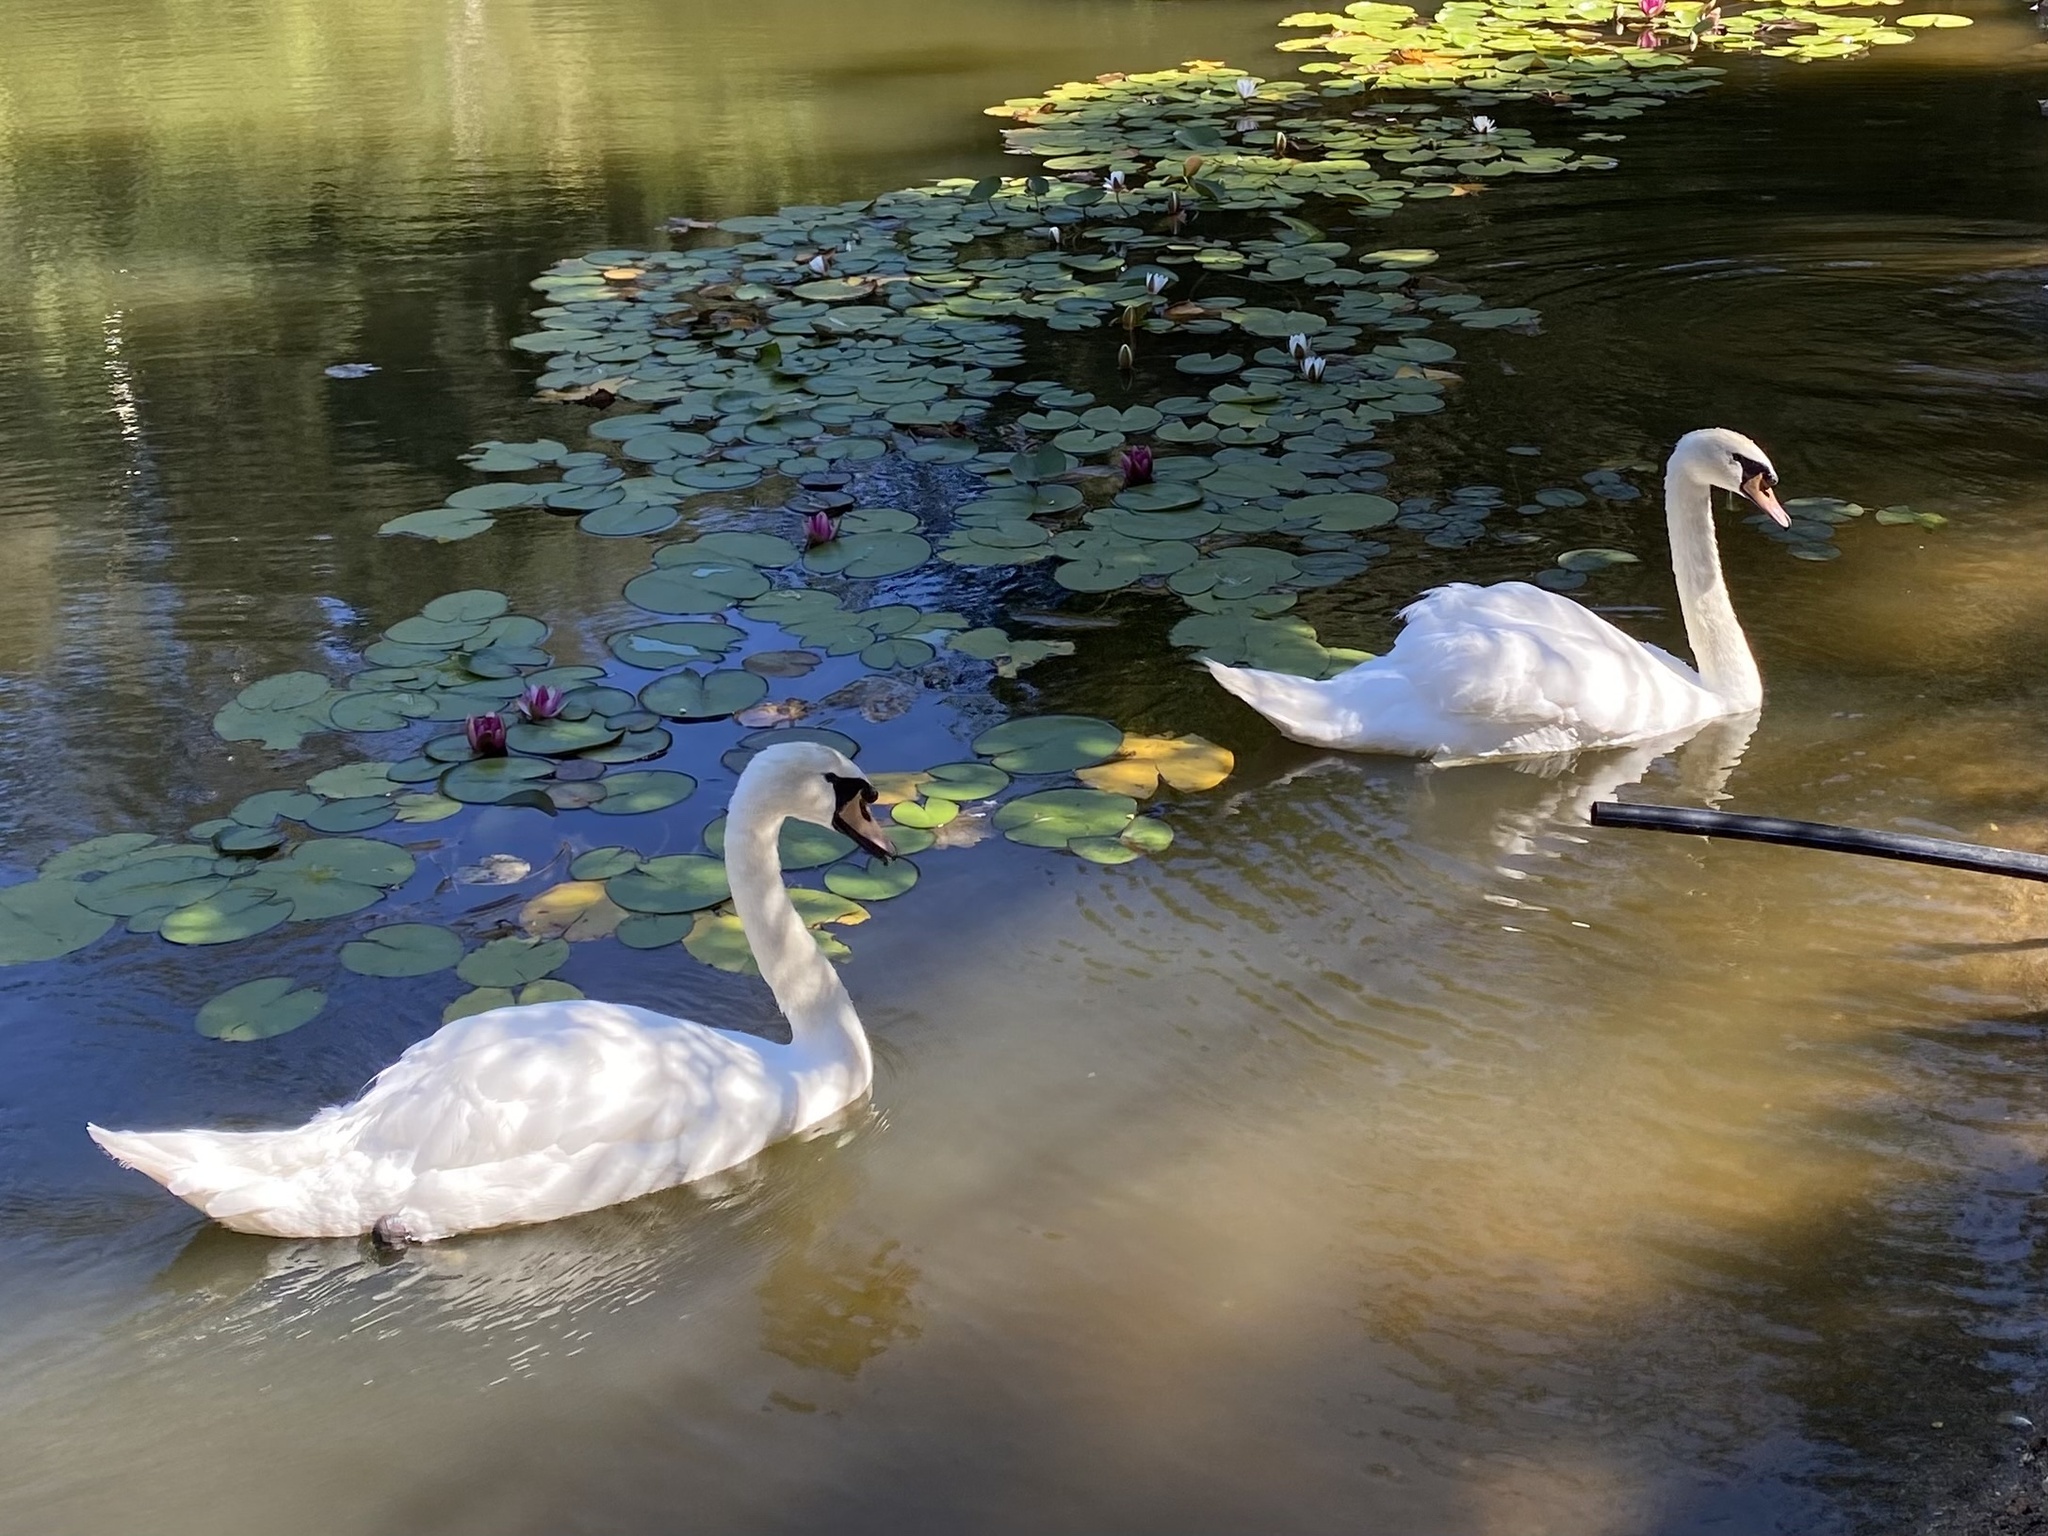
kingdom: Animalia
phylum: Chordata
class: Aves
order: Anseriformes
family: Anatidae
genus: Cygnus
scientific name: Cygnus olor
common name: Mute swan
